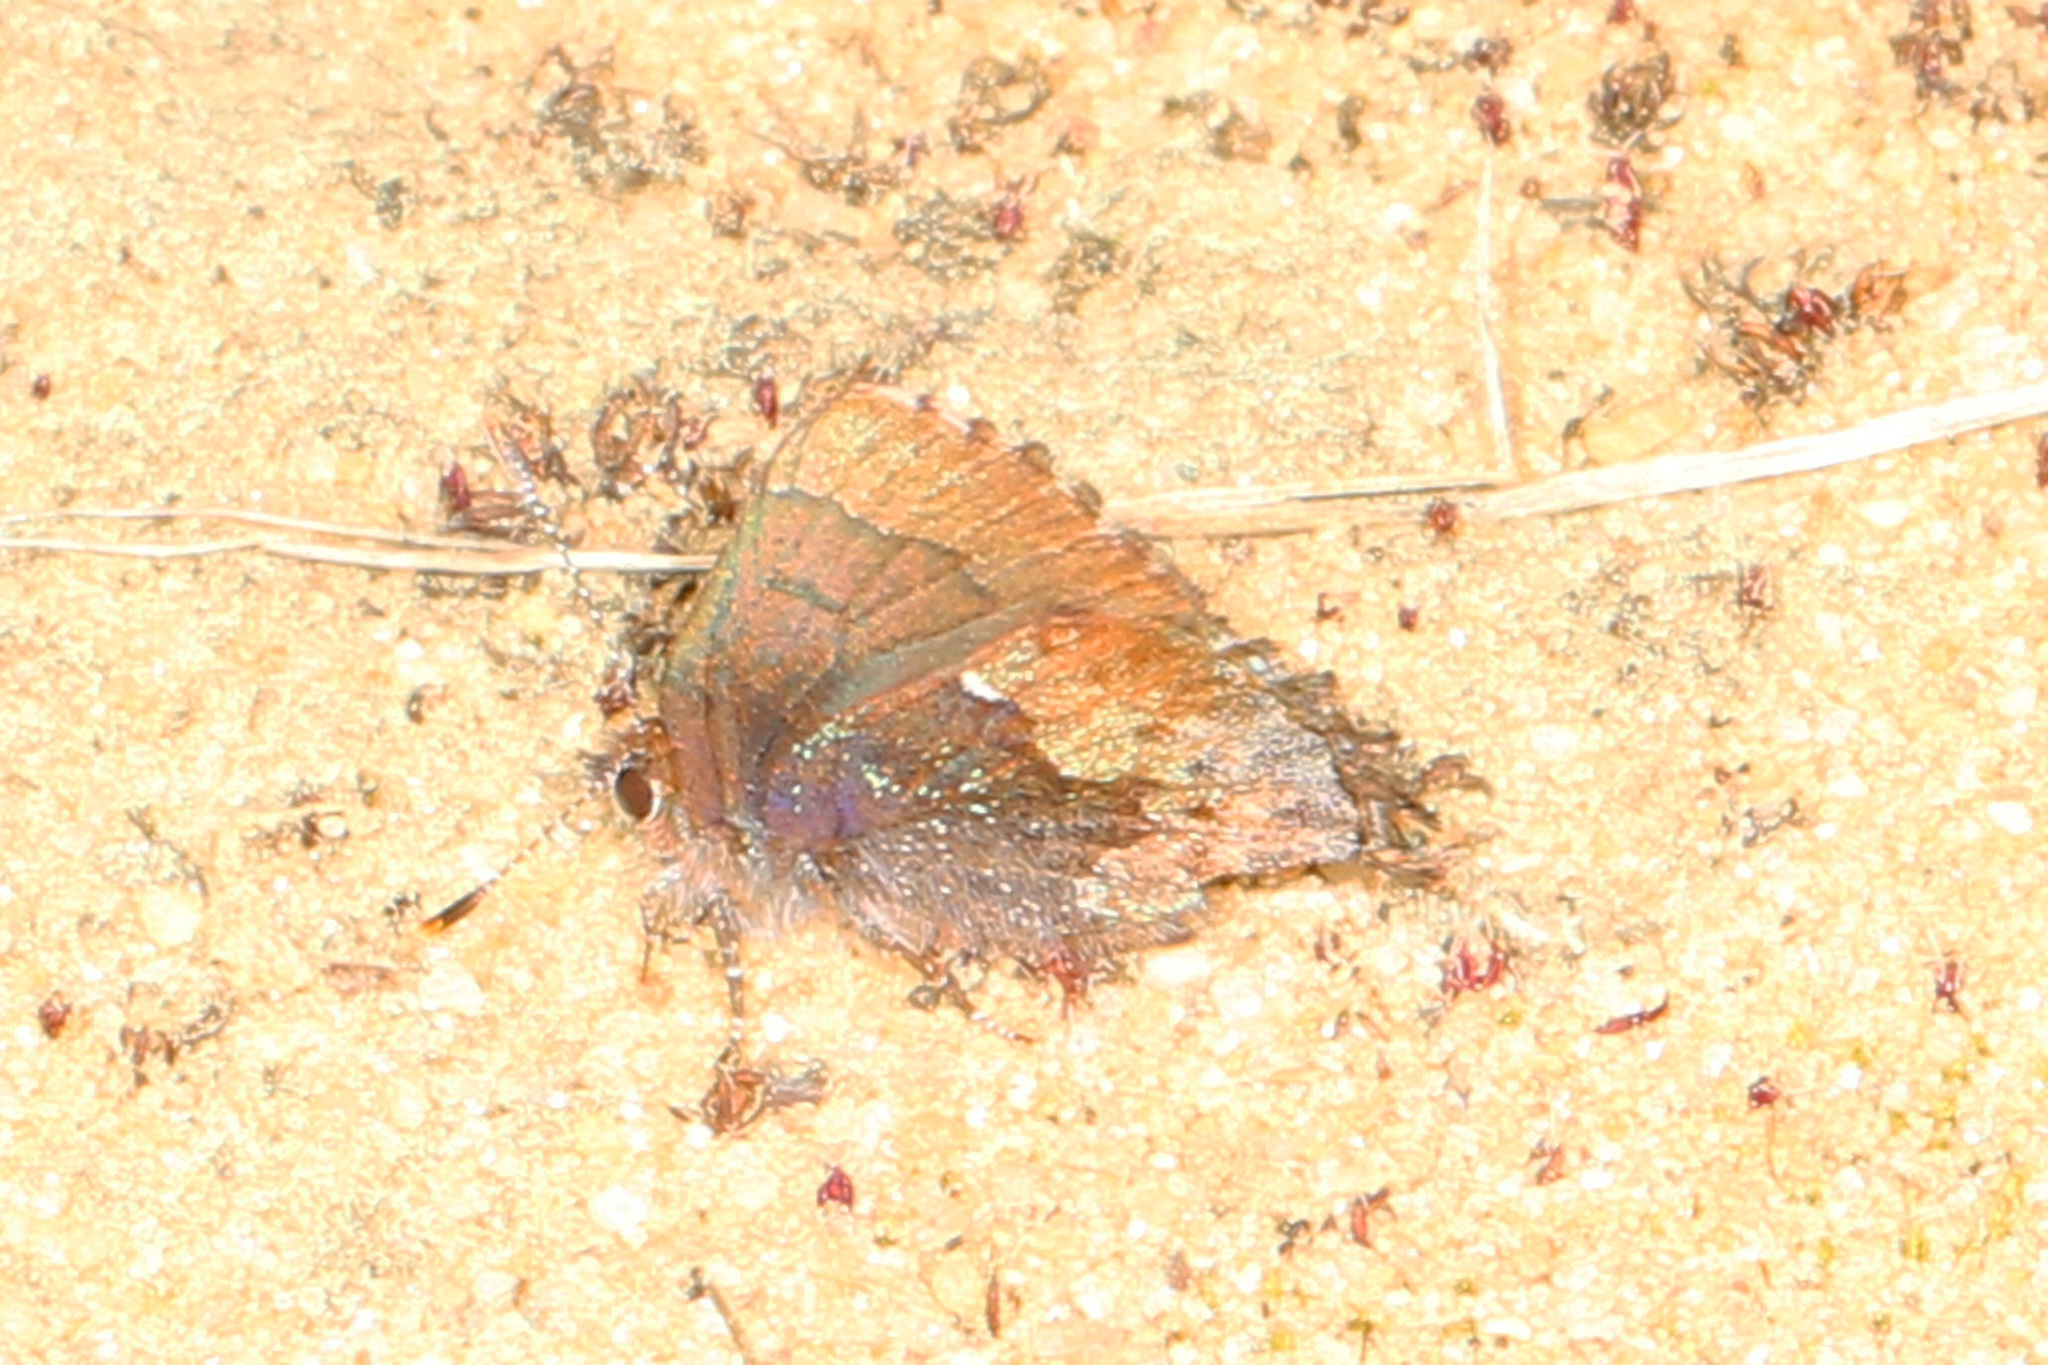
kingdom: Animalia
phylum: Arthropoda
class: Insecta
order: Lepidoptera
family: Lycaenidae
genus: Incisalia
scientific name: Incisalia henrici
